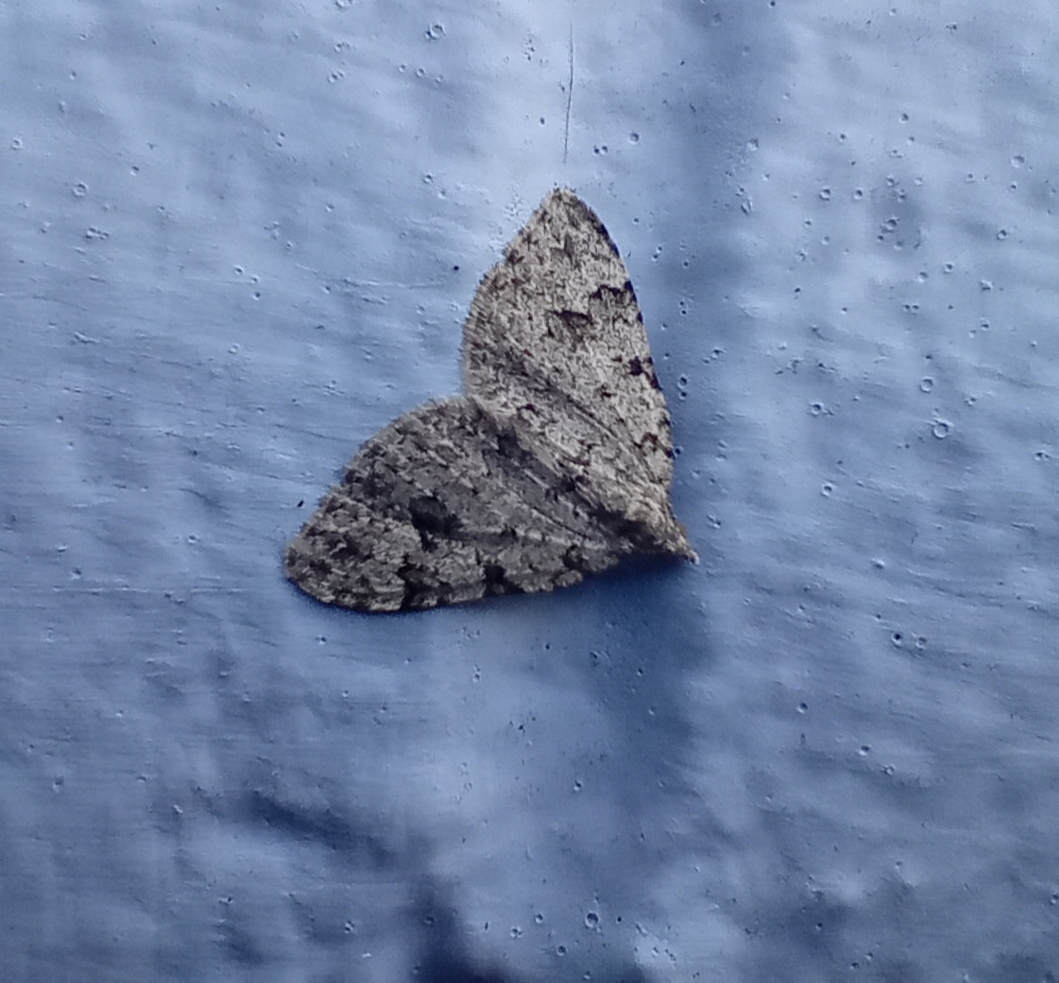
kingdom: Animalia
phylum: Arthropoda
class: Insecta
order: Lepidoptera
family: Geometridae
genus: Helastia
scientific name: Helastia cinerearia
